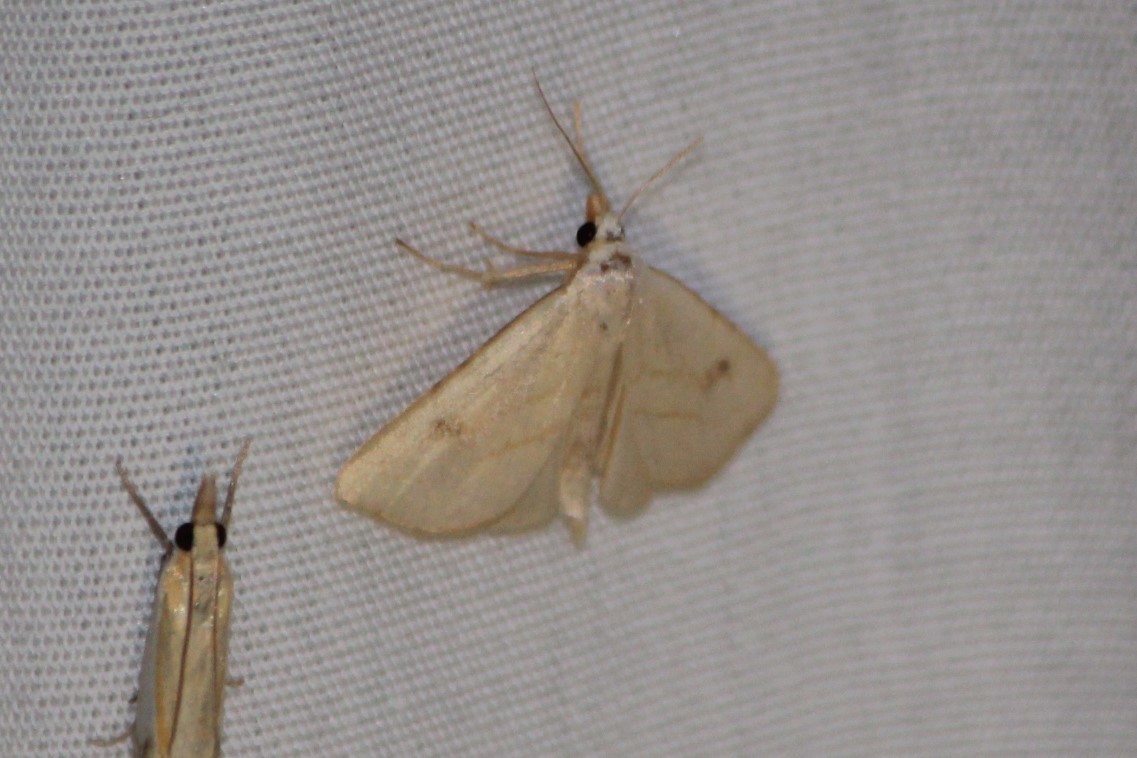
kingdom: Animalia
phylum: Arthropoda
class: Insecta
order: Lepidoptera
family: Erebidae
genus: Rivula
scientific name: Rivula propinqualis
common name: Spotted grass moth
